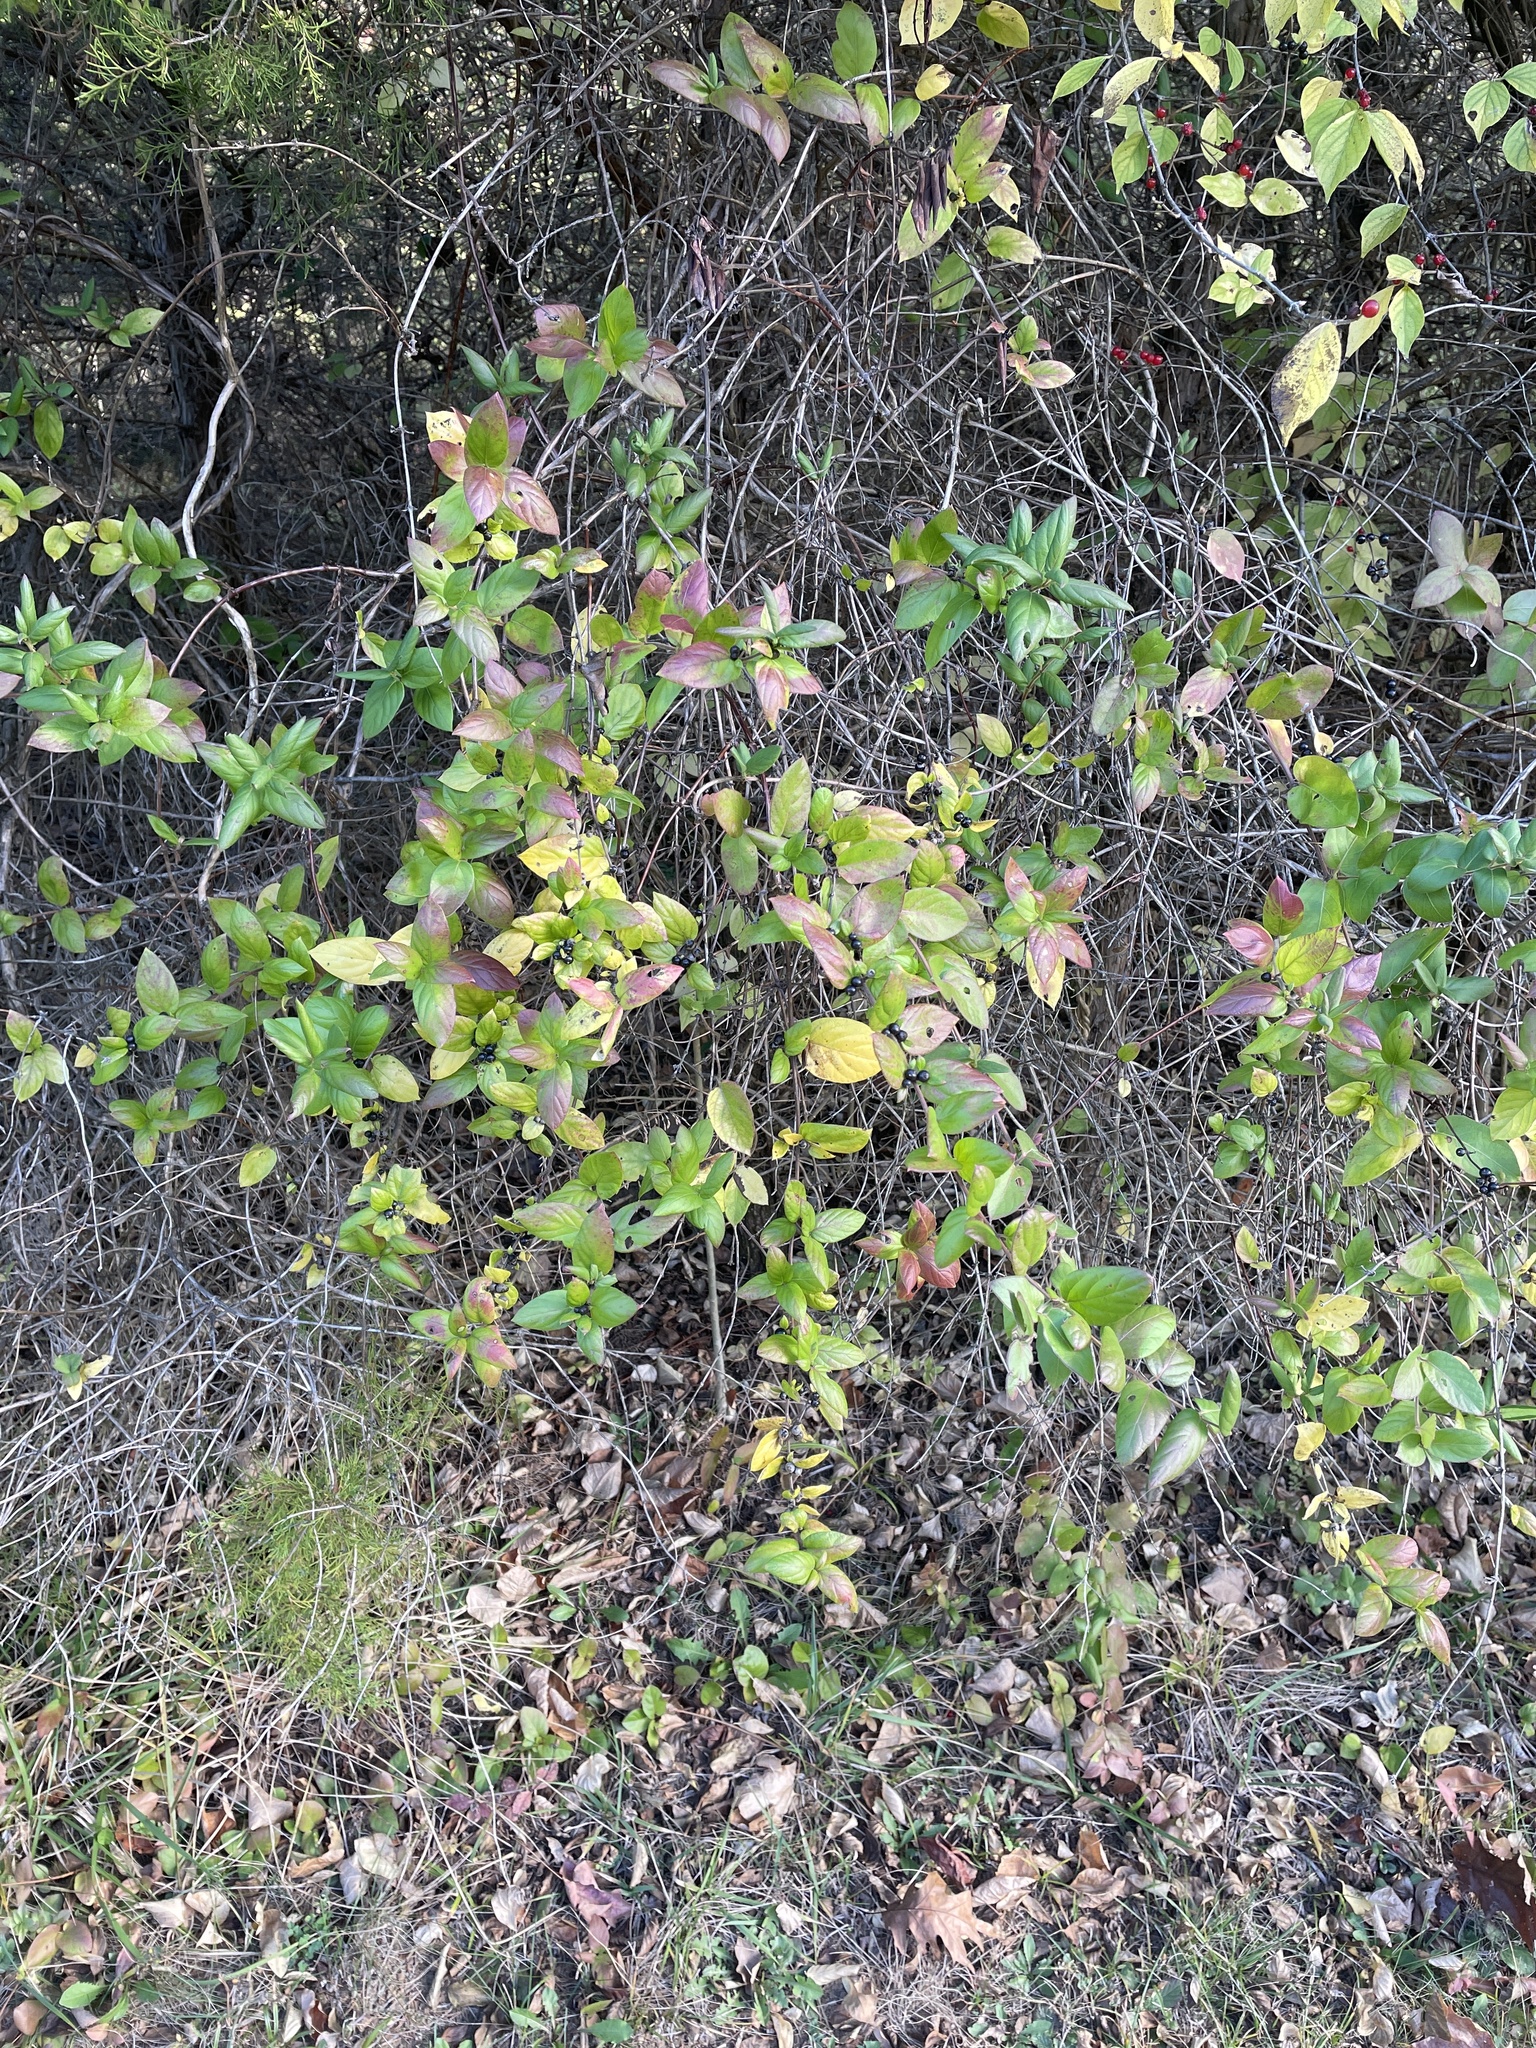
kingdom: Plantae
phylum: Tracheophyta
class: Magnoliopsida
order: Dipsacales
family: Caprifoliaceae
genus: Lonicera
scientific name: Lonicera japonica
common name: Japanese honeysuckle
